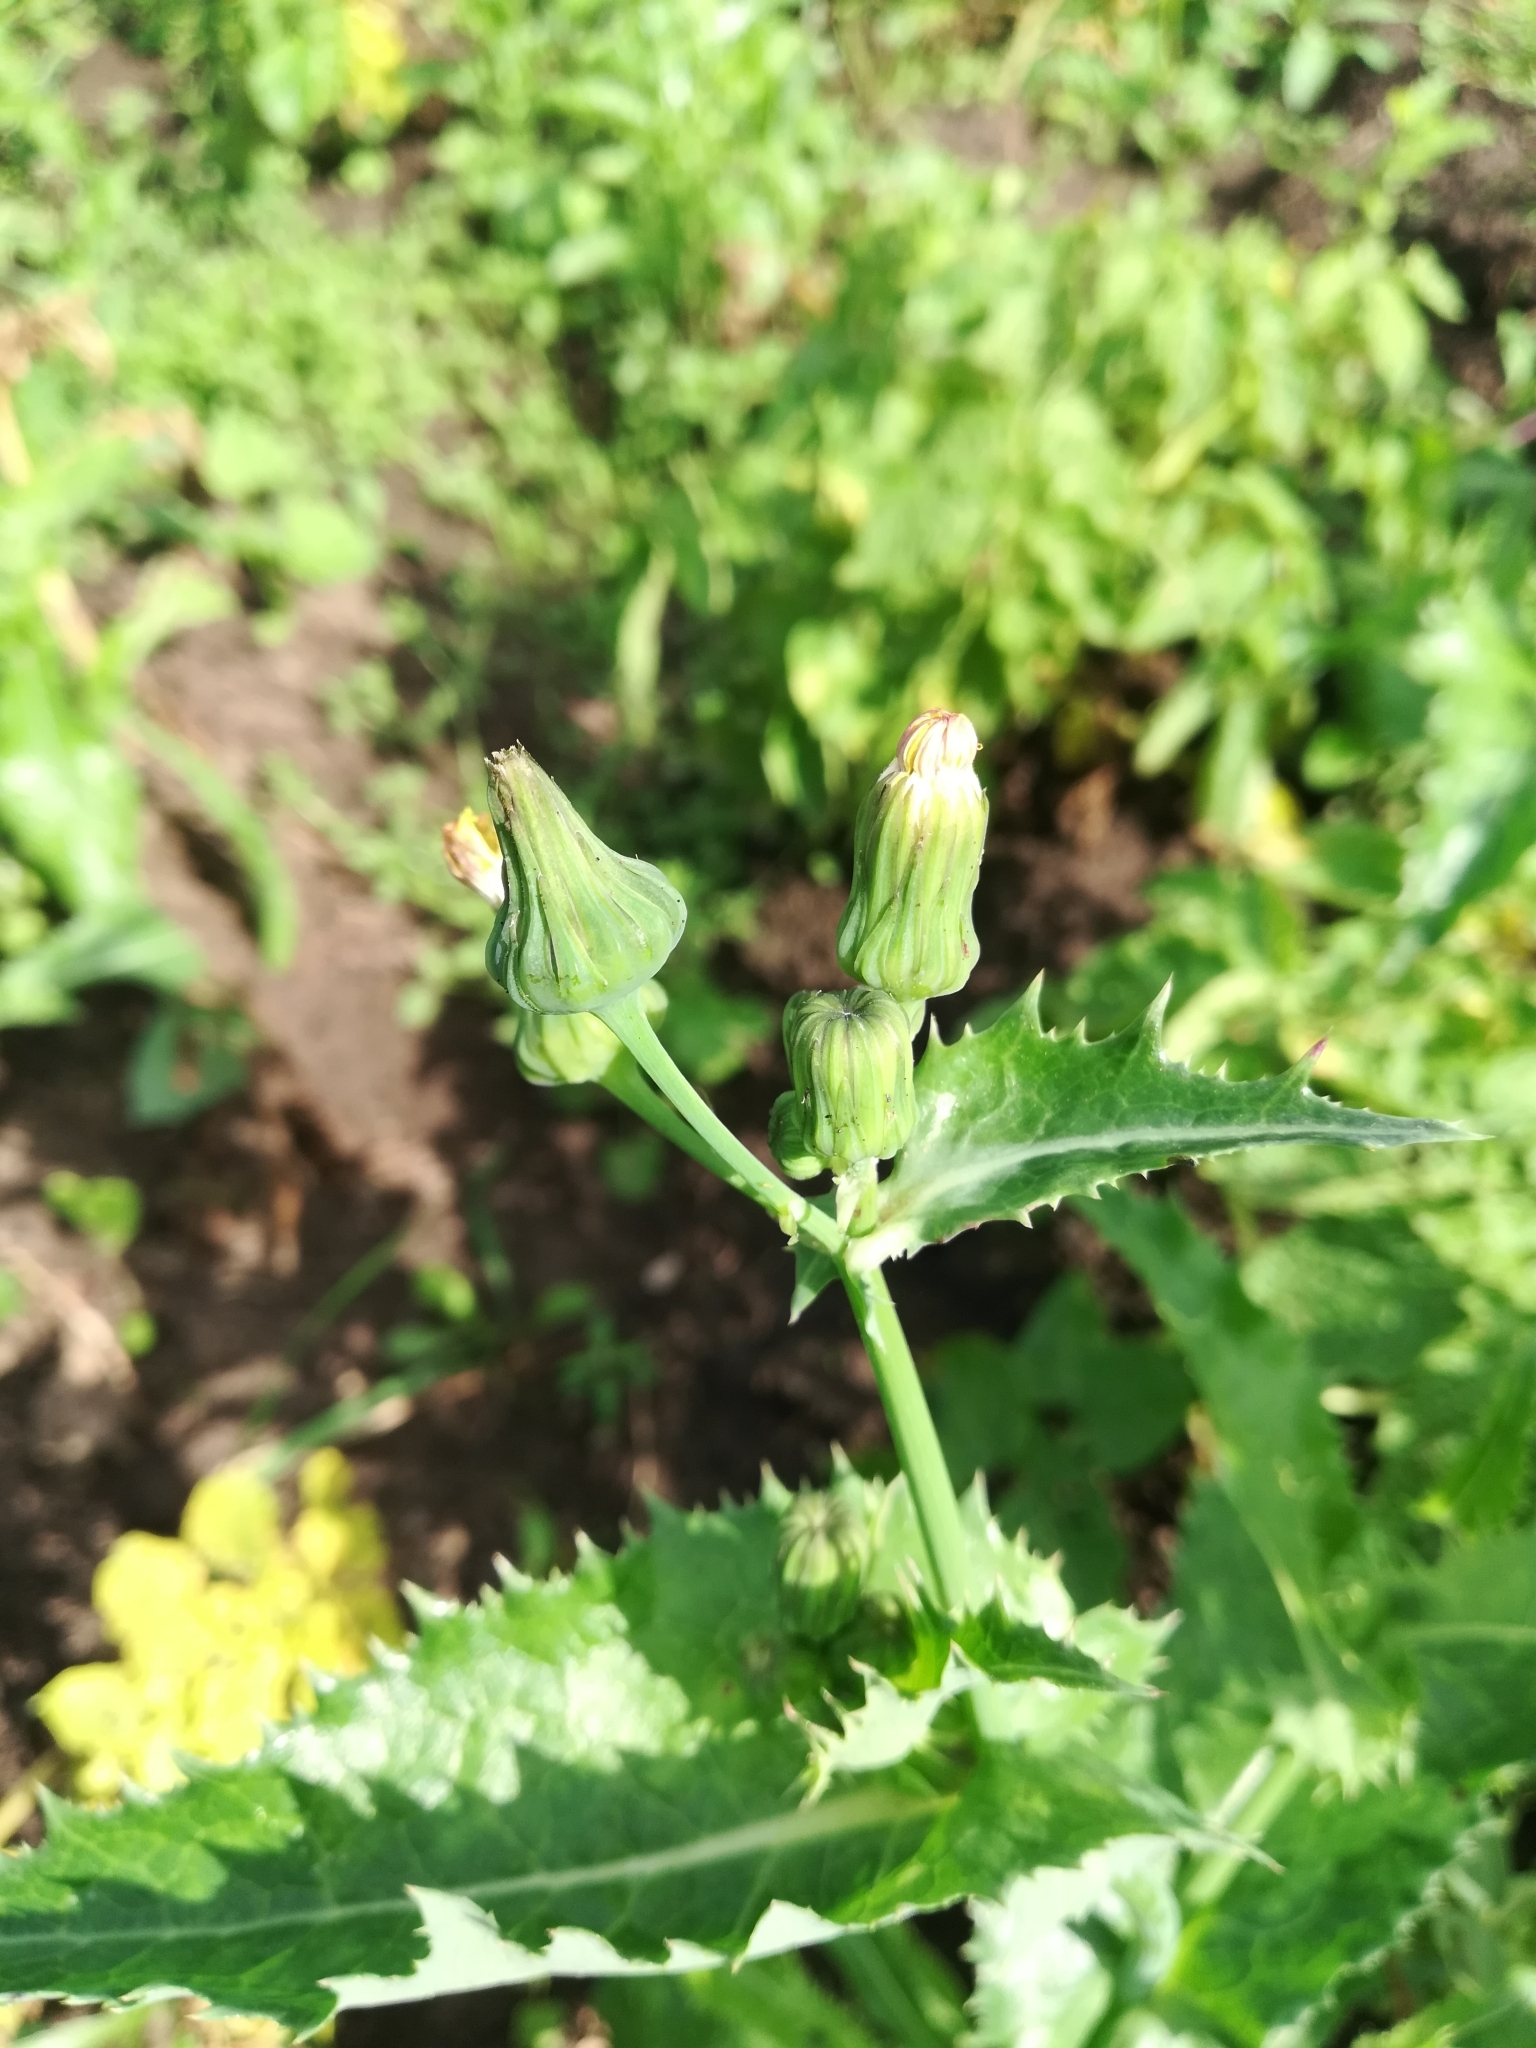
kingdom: Plantae
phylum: Tracheophyta
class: Magnoliopsida
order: Asterales
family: Asteraceae
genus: Sonchus
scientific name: Sonchus asper
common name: Prickly sow-thistle
